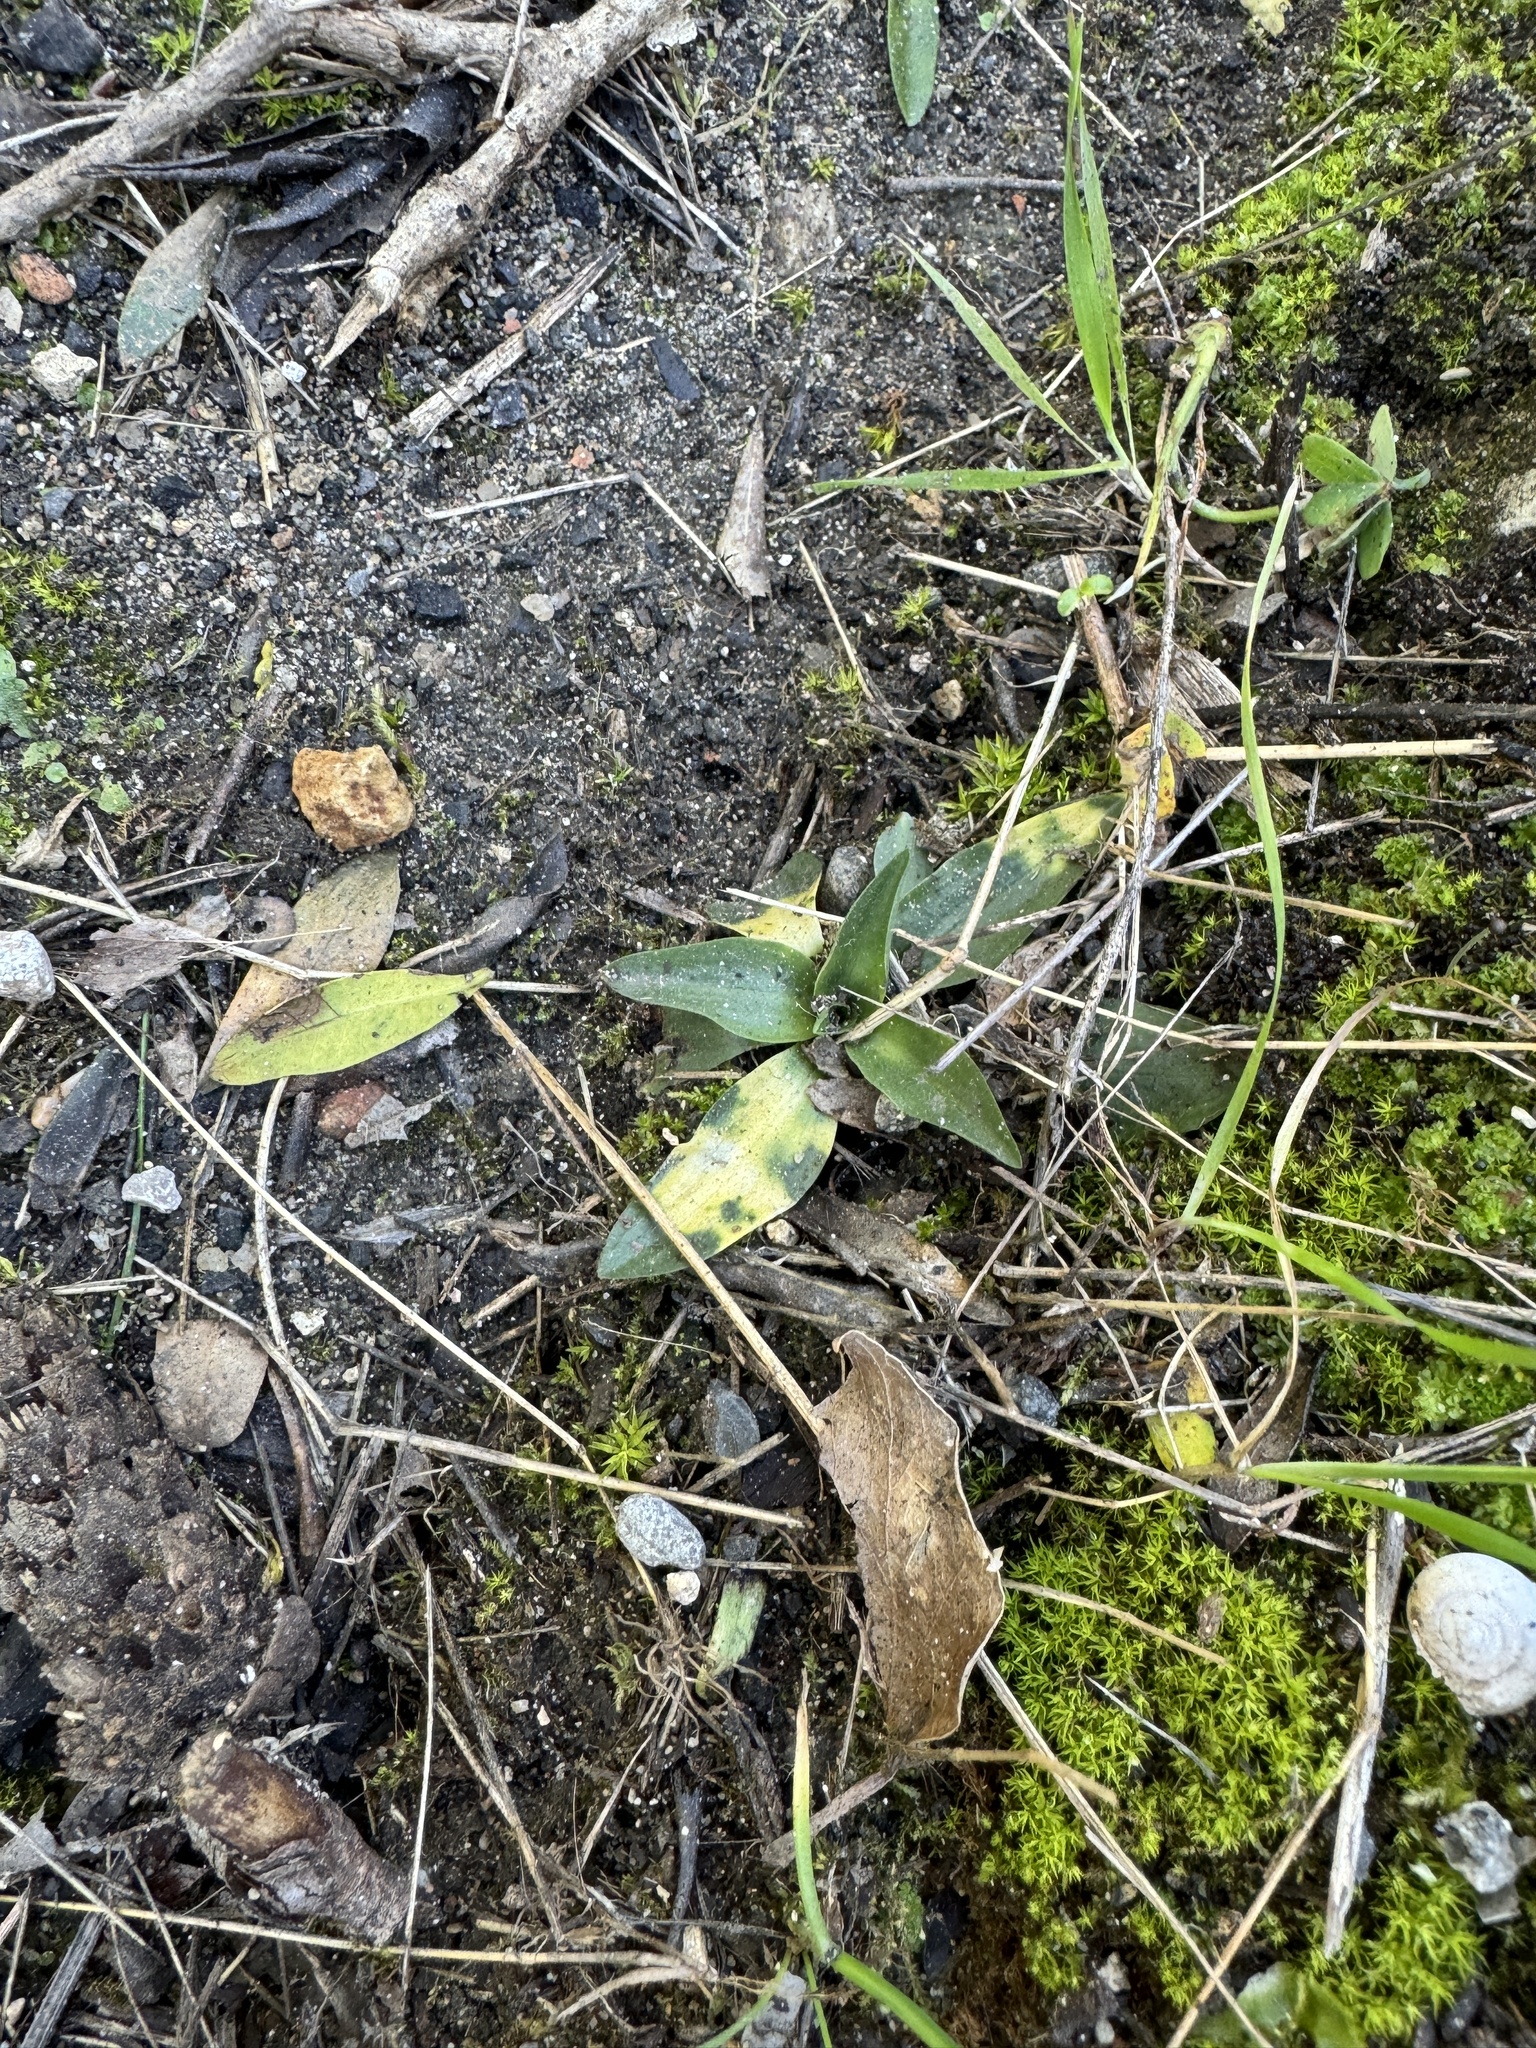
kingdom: Plantae
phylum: Tracheophyta
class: Liliopsida
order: Asparagales
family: Orchidaceae
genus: Spiranthes
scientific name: Spiranthes spiralis
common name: Autumn lady's-tresses
